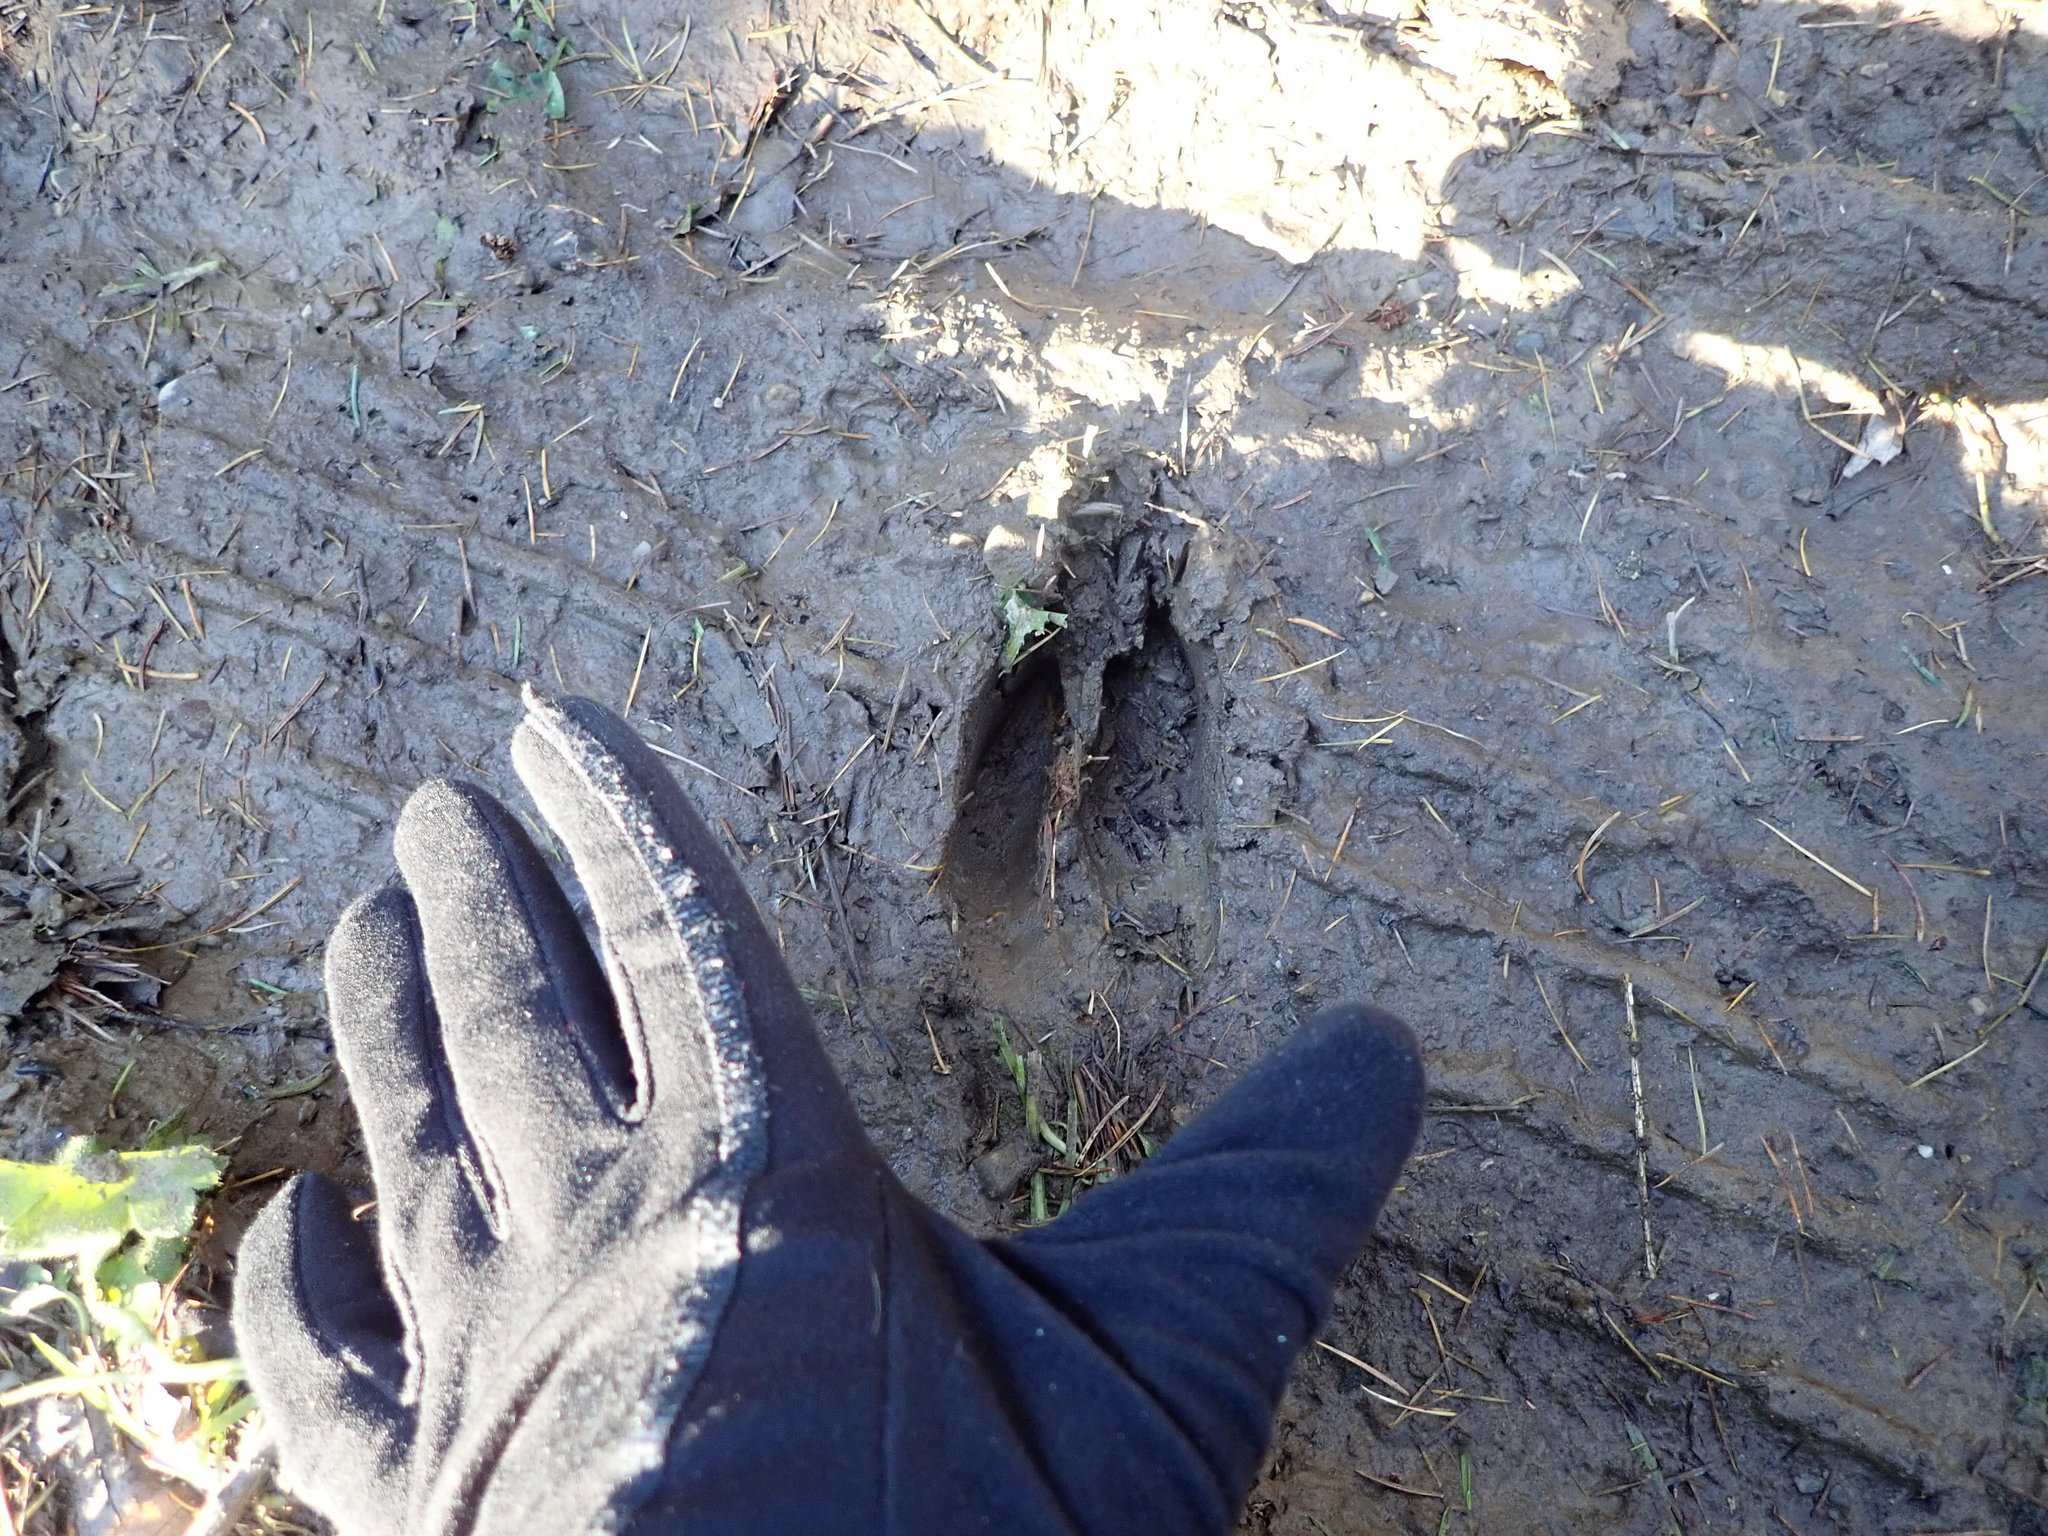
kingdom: Animalia
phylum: Chordata
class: Mammalia
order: Artiodactyla
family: Cervidae
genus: Odocoileus
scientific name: Odocoileus virginianus
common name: White-tailed deer
